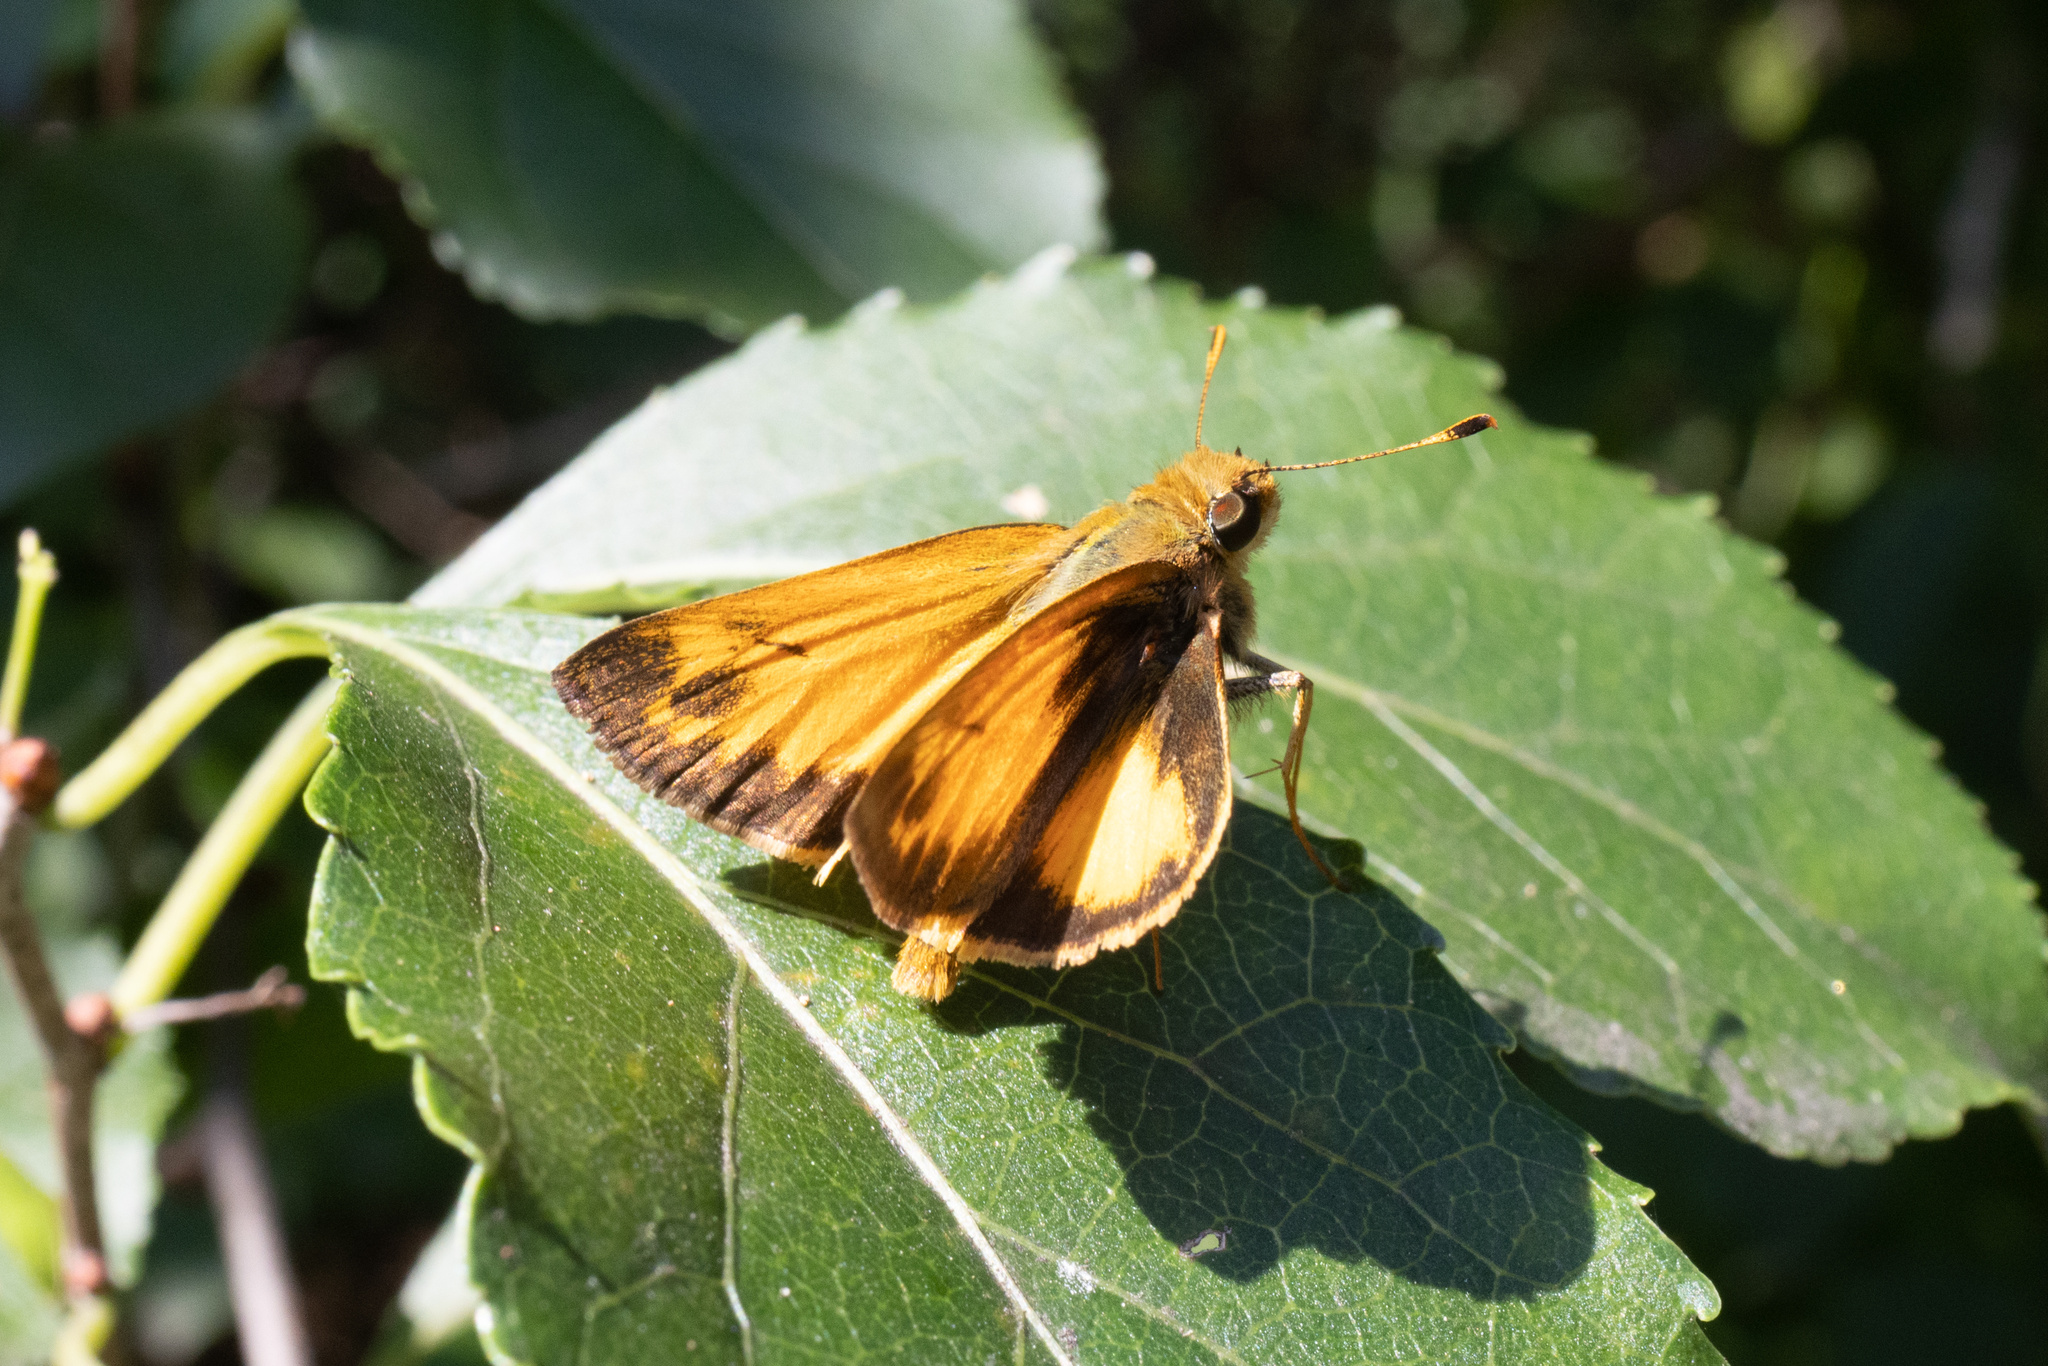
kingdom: Animalia
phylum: Arthropoda
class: Insecta
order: Lepidoptera
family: Hesperiidae
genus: Lon
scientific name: Lon zabulon
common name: Zabulon skipper
